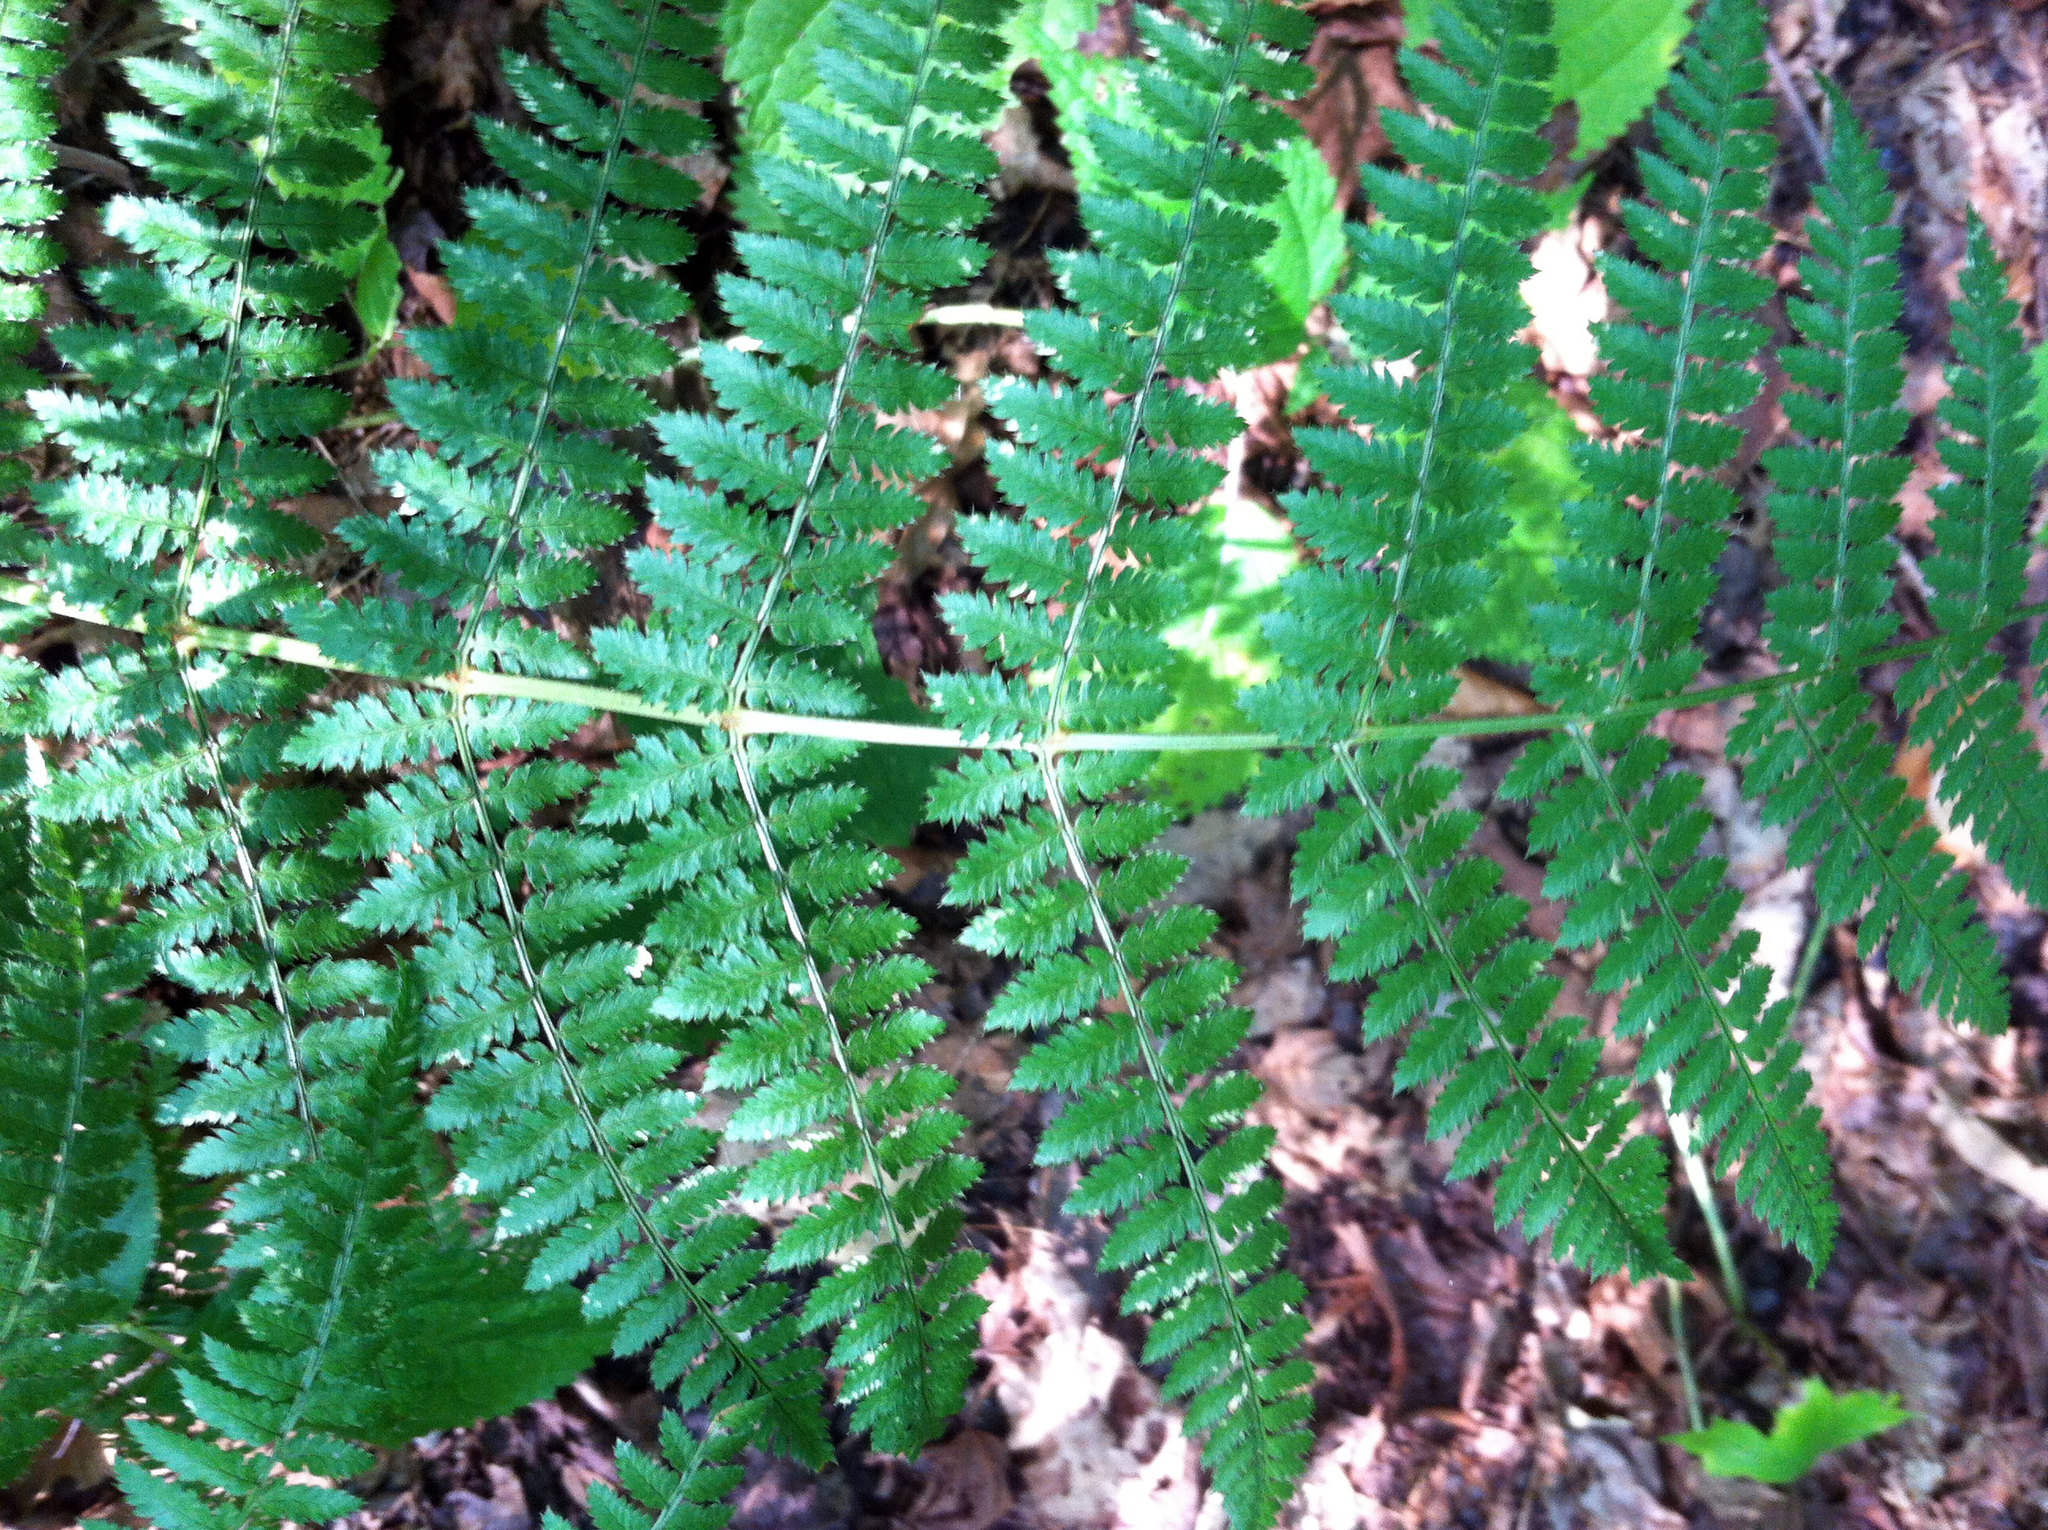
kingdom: Plantae
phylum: Tracheophyta
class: Polypodiopsida
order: Polypodiales
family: Dryopteridaceae
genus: Dryopteris
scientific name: Dryopteris intermedia
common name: Evergreen wood fern
